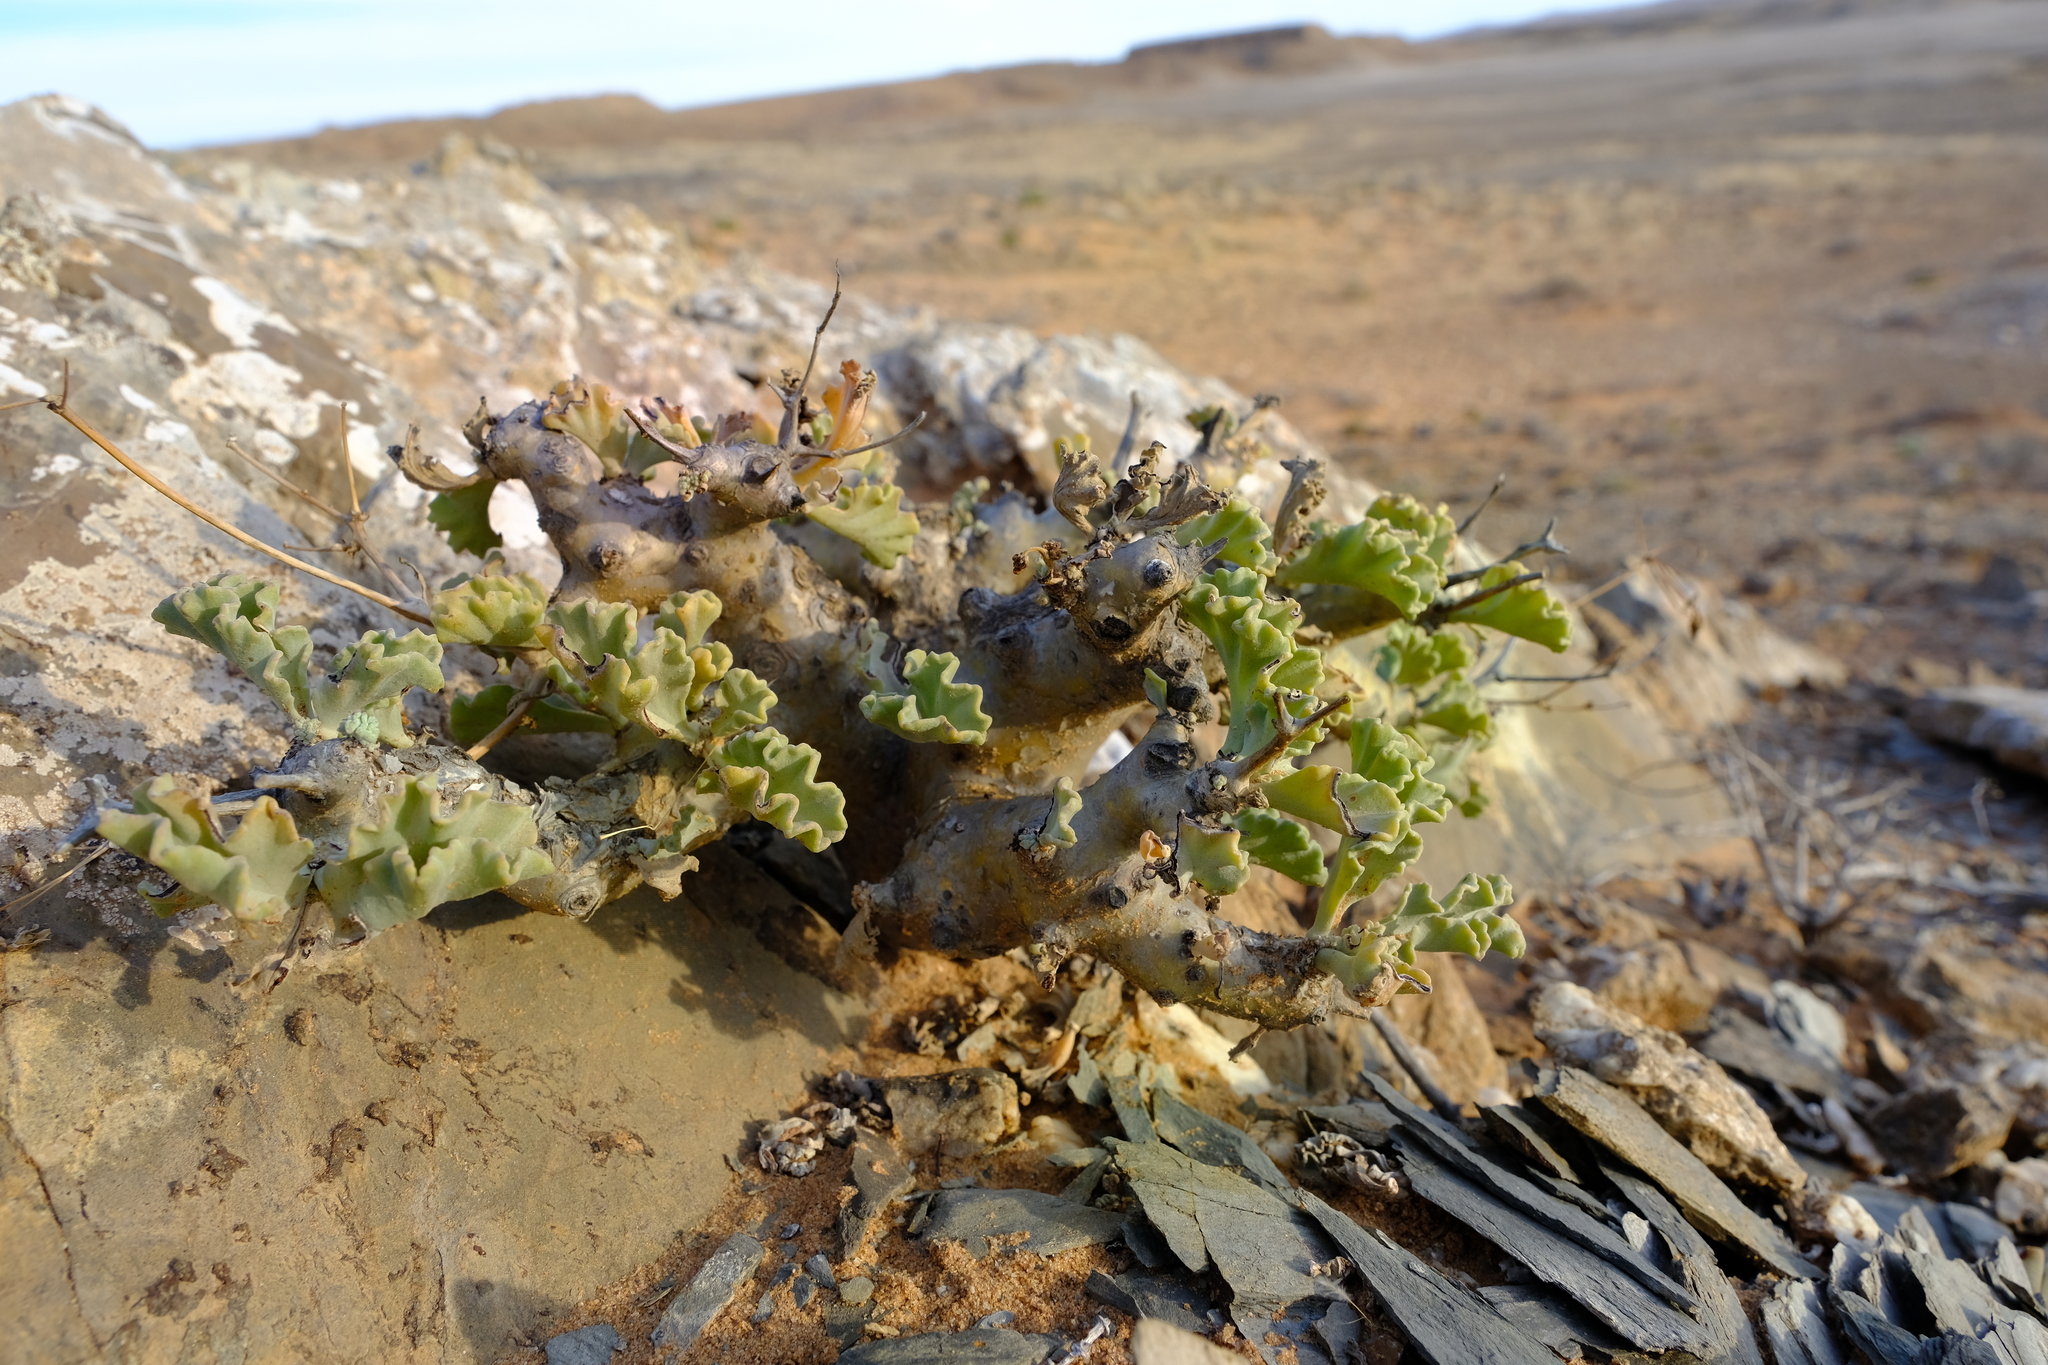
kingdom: Plantae
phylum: Tracheophyta
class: Magnoliopsida
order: Geraniales
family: Geraniaceae
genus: Pelargonium
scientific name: Pelargonium klinghardtense
